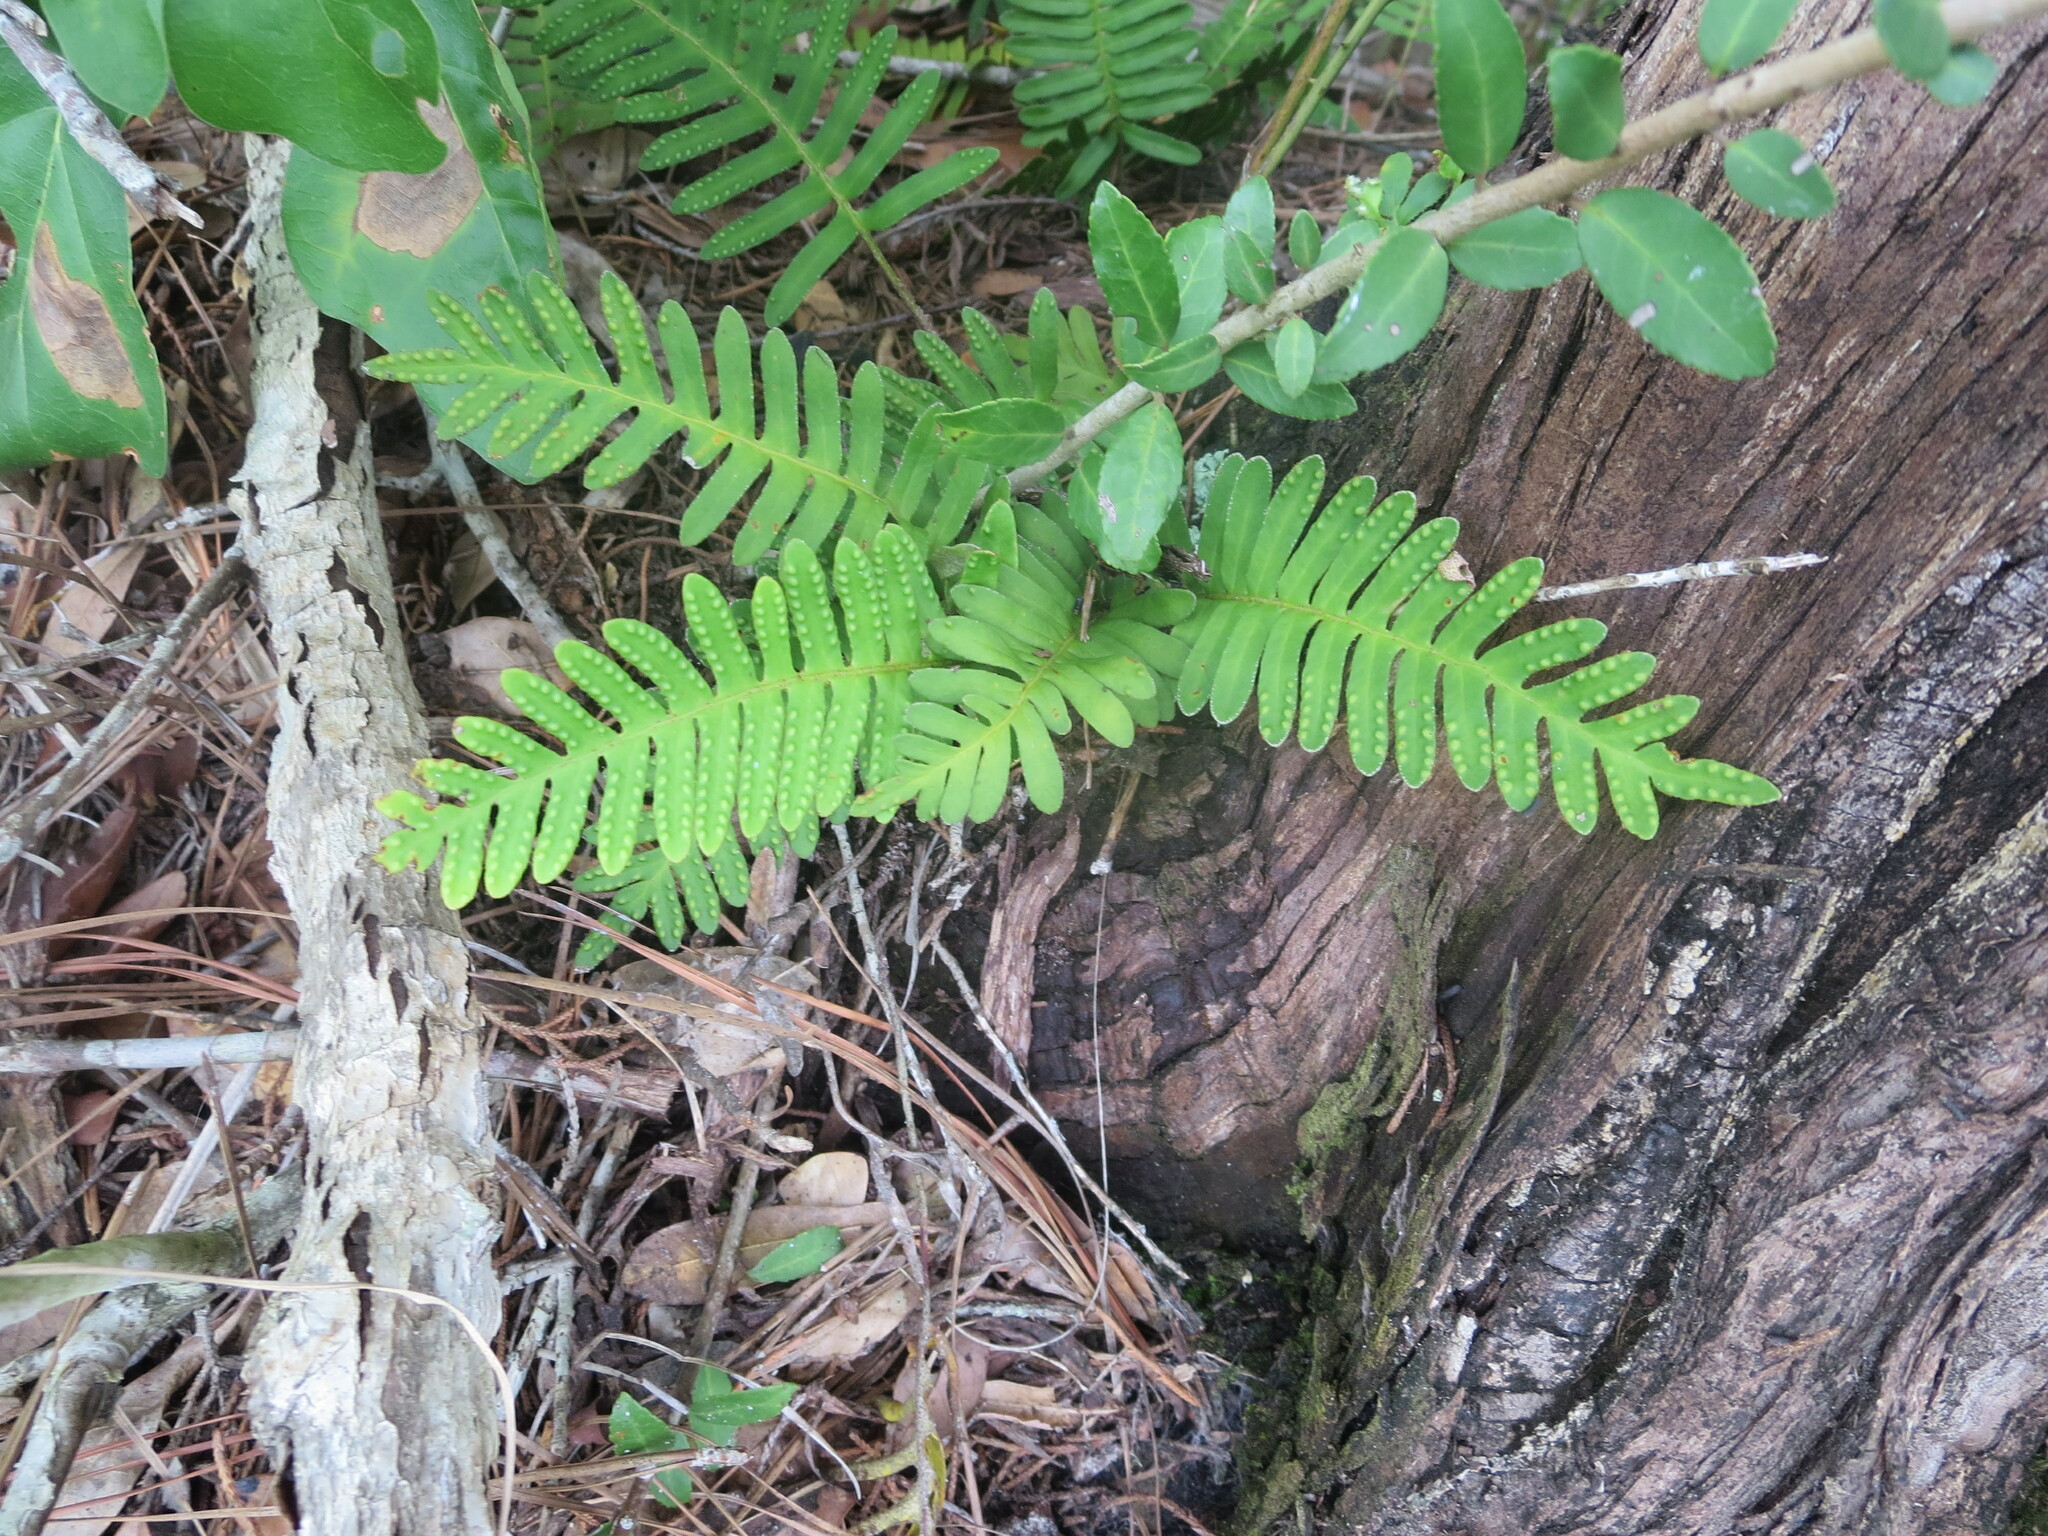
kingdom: Plantae
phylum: Tracheophyta
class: Polypodiopsida
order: Polypodiales
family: Polypodiaceae
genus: Pleopeltis
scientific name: Pleopeltis michauxiana
